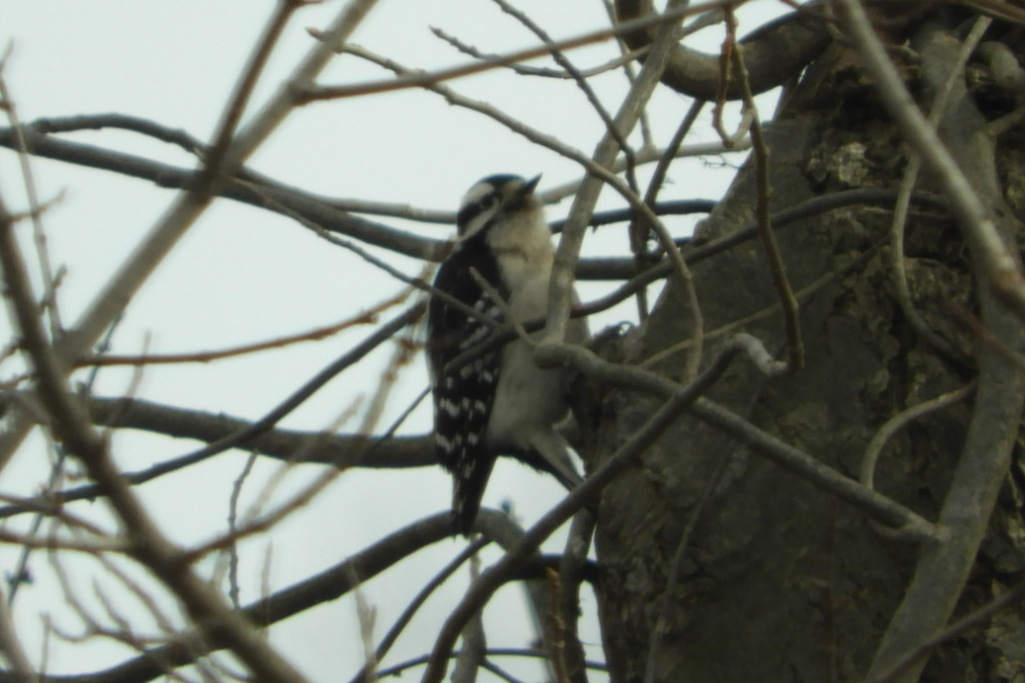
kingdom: Animalia
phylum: Chordata
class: Aves
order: Piciformes
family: Picidae
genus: Dryobates
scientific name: Dryobates pubescens
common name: Downy woodpecker
